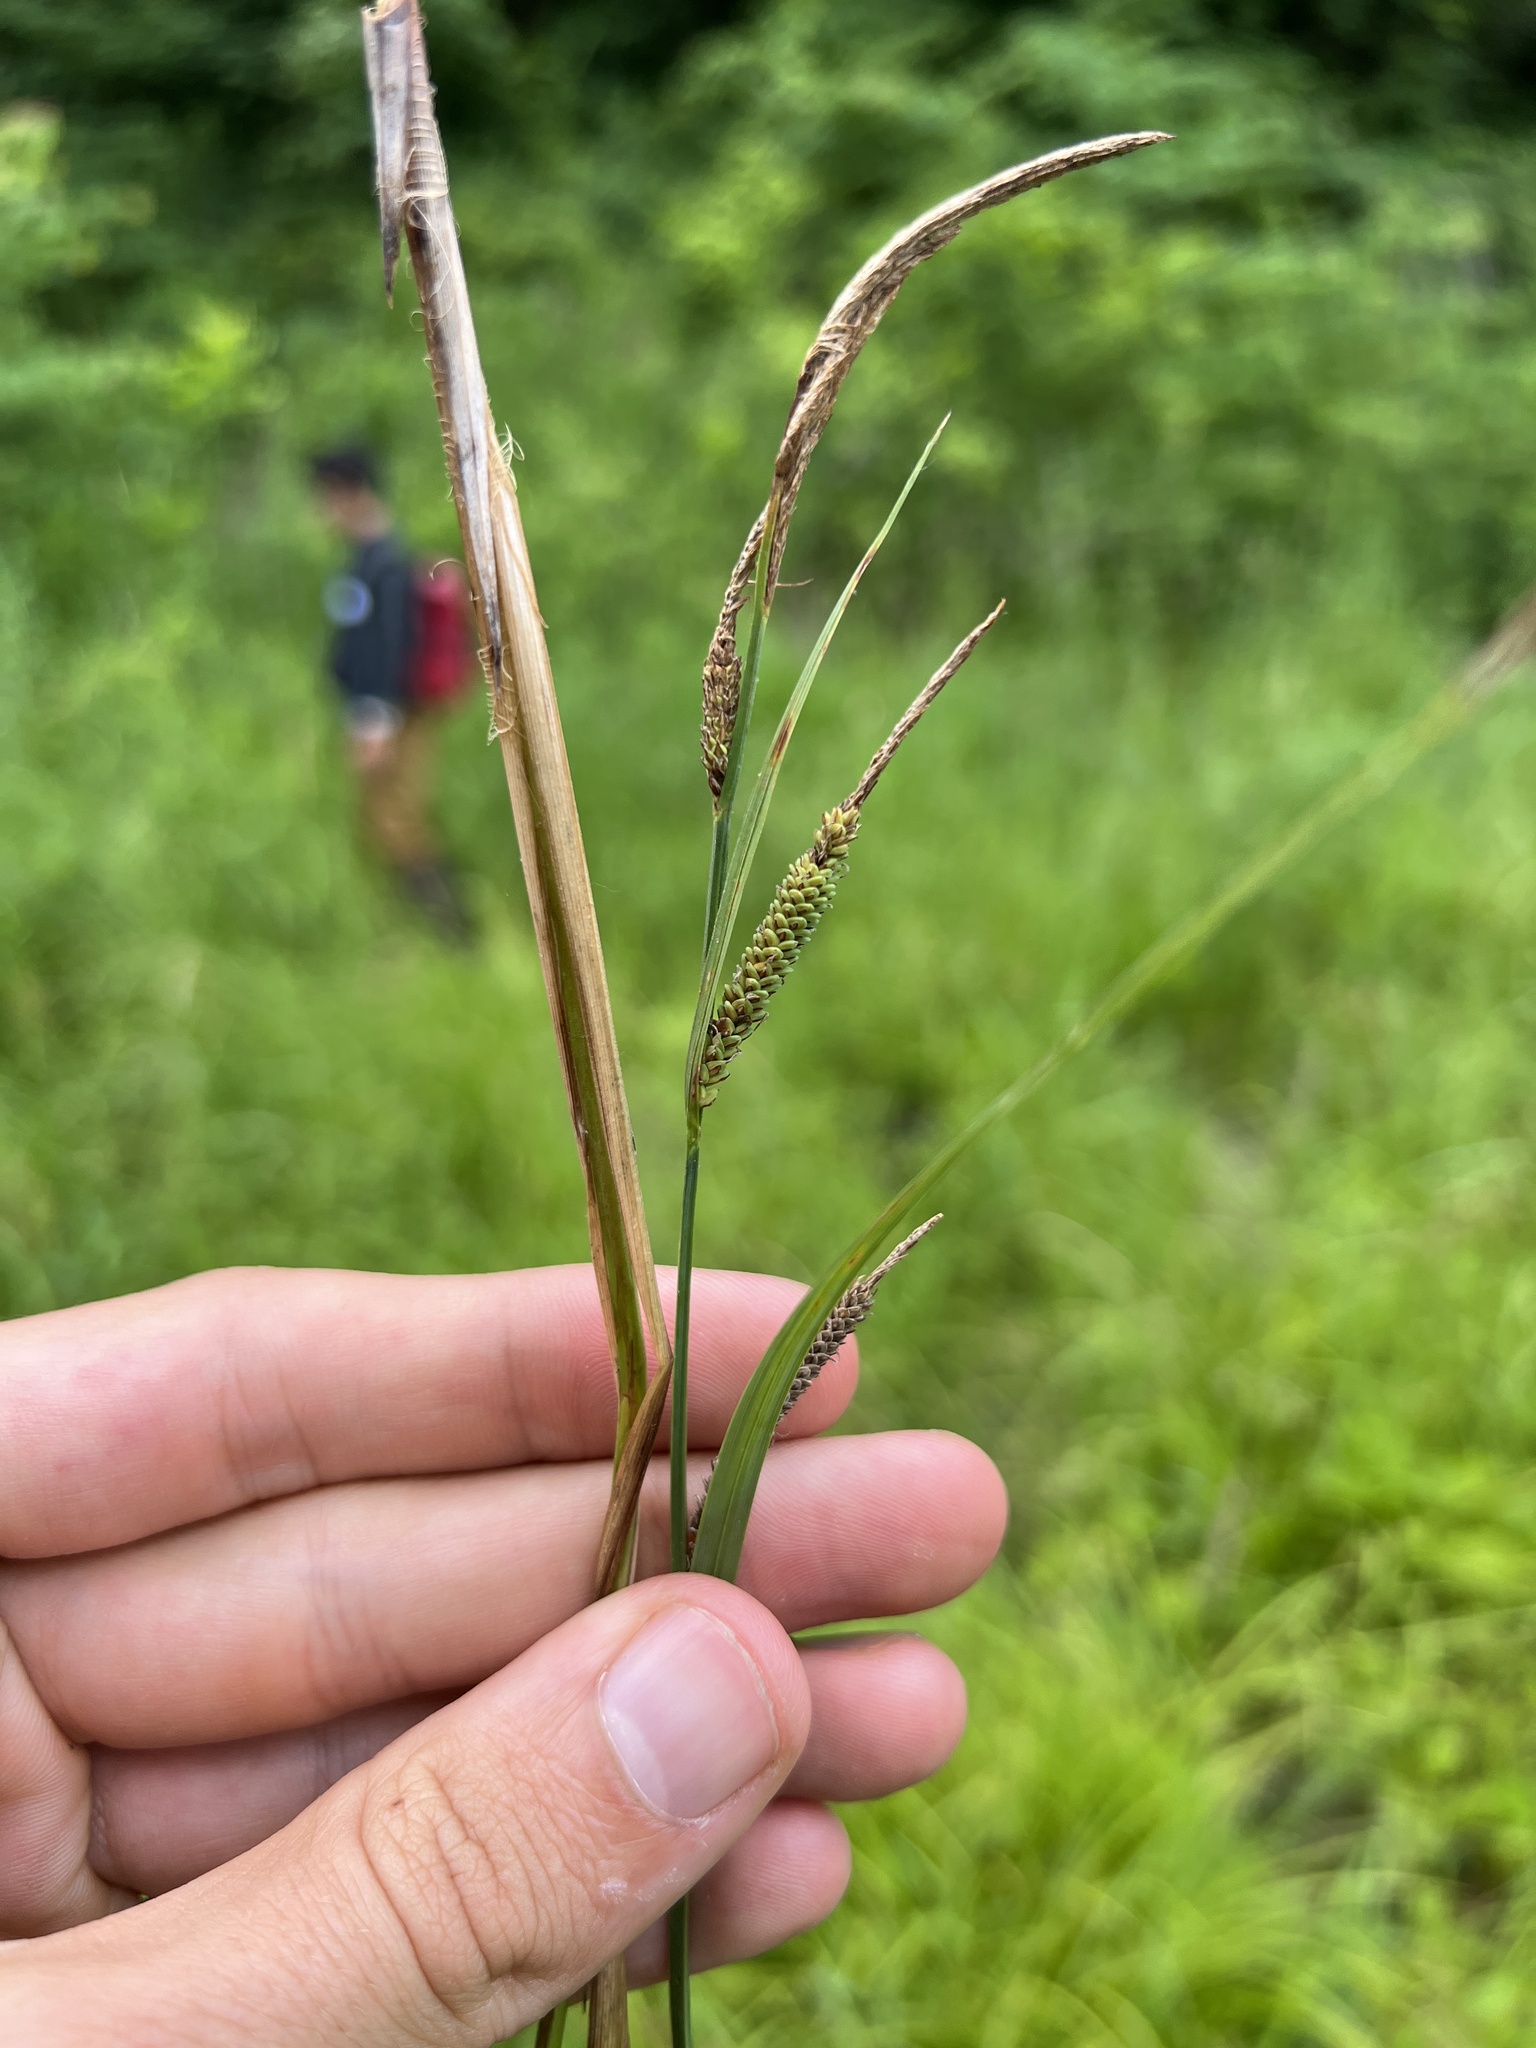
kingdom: Plantae
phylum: Tracheophyta
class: Liliopsida
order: Poales
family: Cyperaceae
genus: Carex
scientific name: Carex stricta
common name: Hummock sedge
